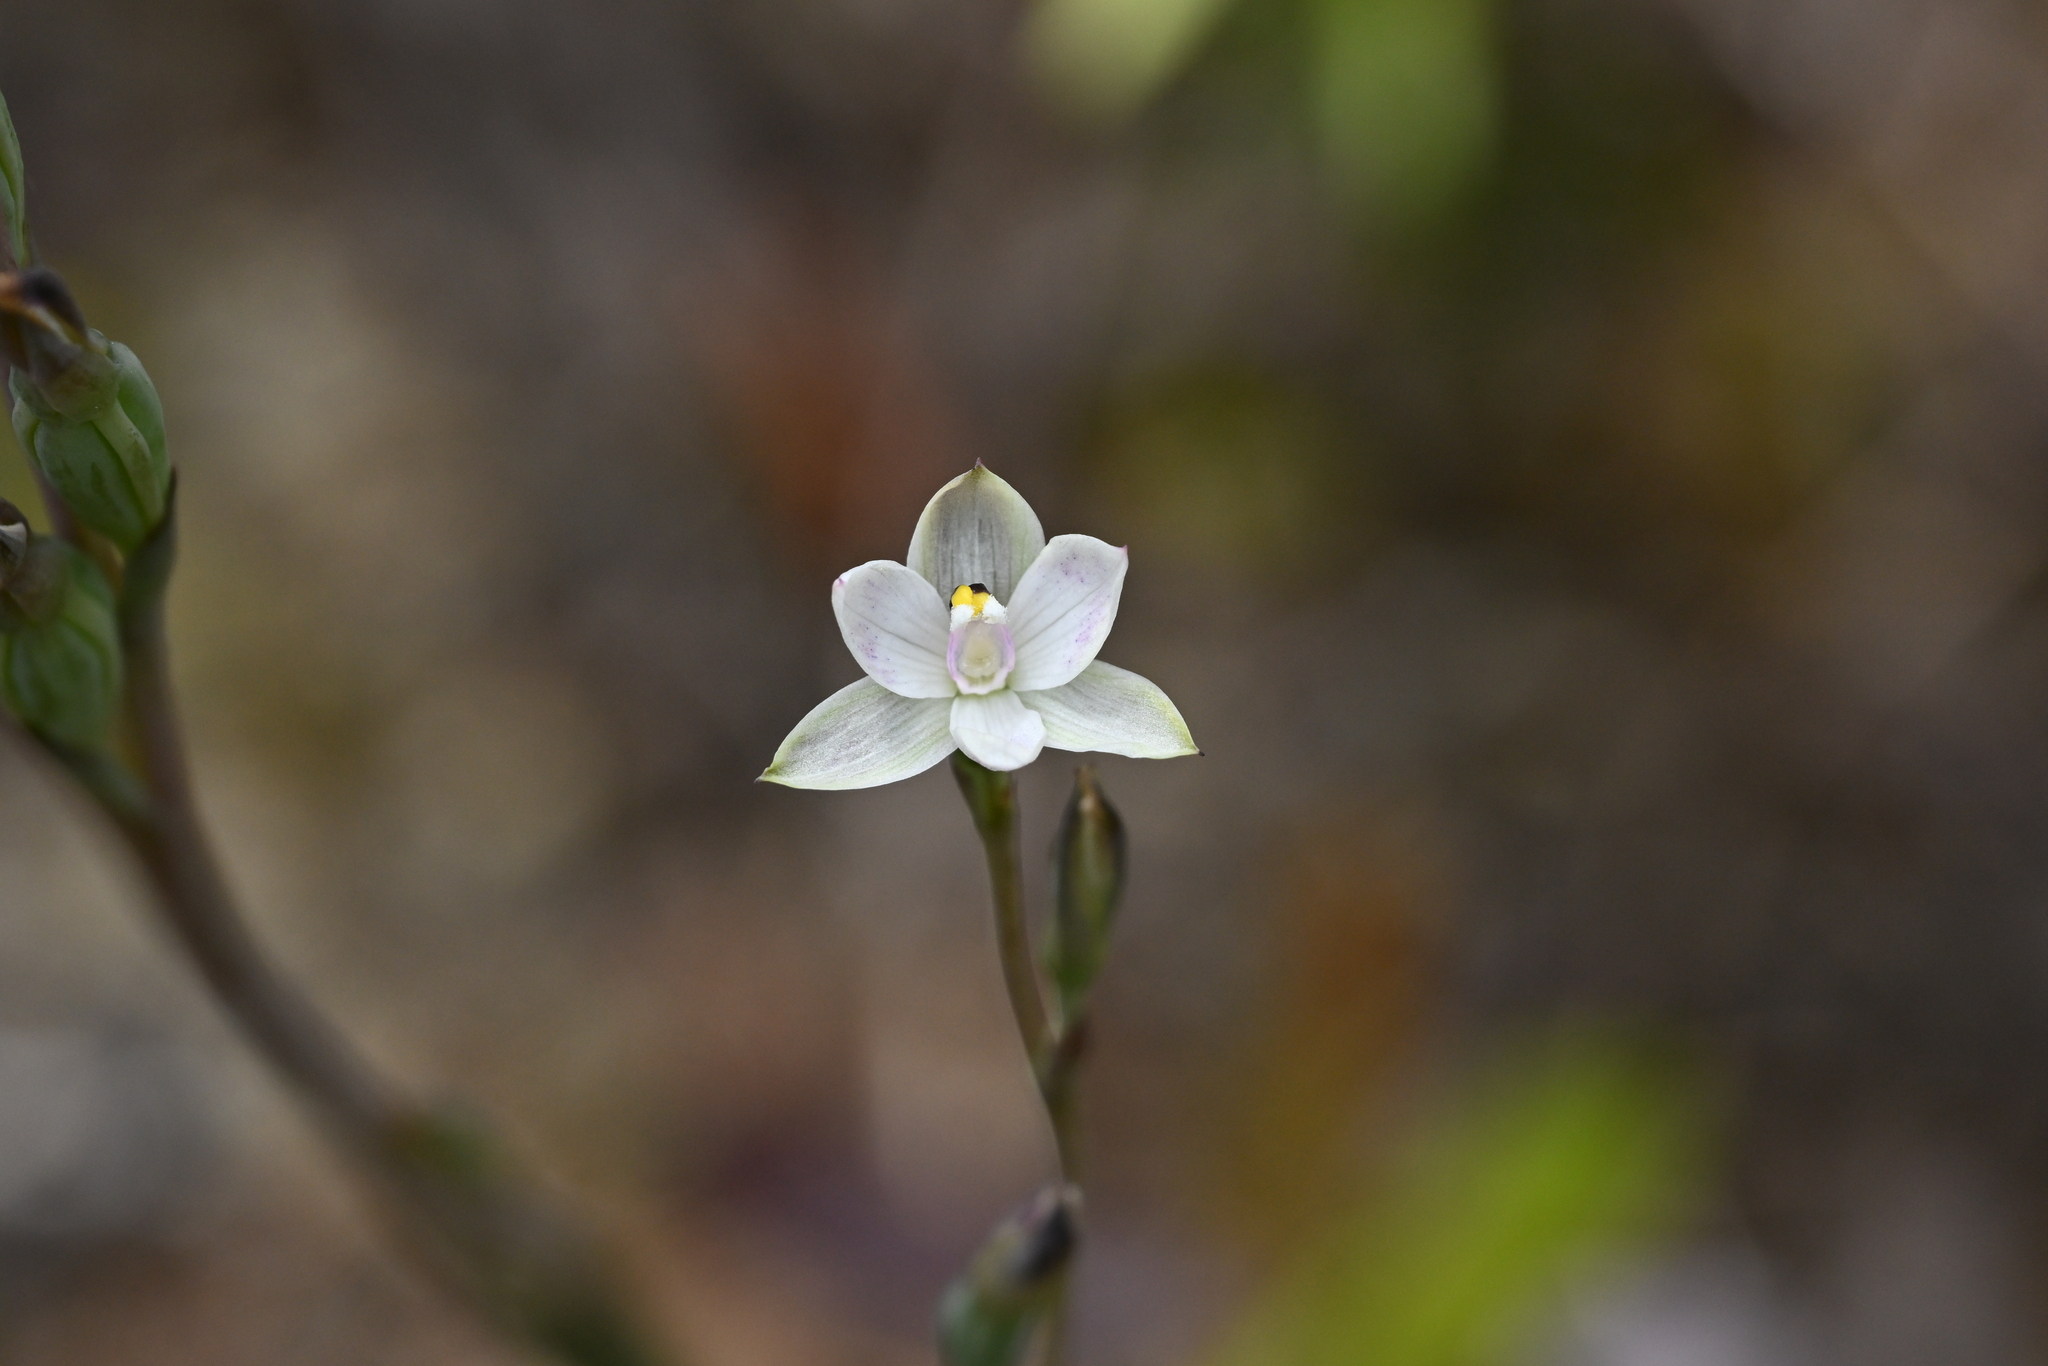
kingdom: Plantae
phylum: Tracheophyta
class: Liliopsida
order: Asparagales
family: Orchidaceae
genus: Thelymitra
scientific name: Thelymitra longifolia
